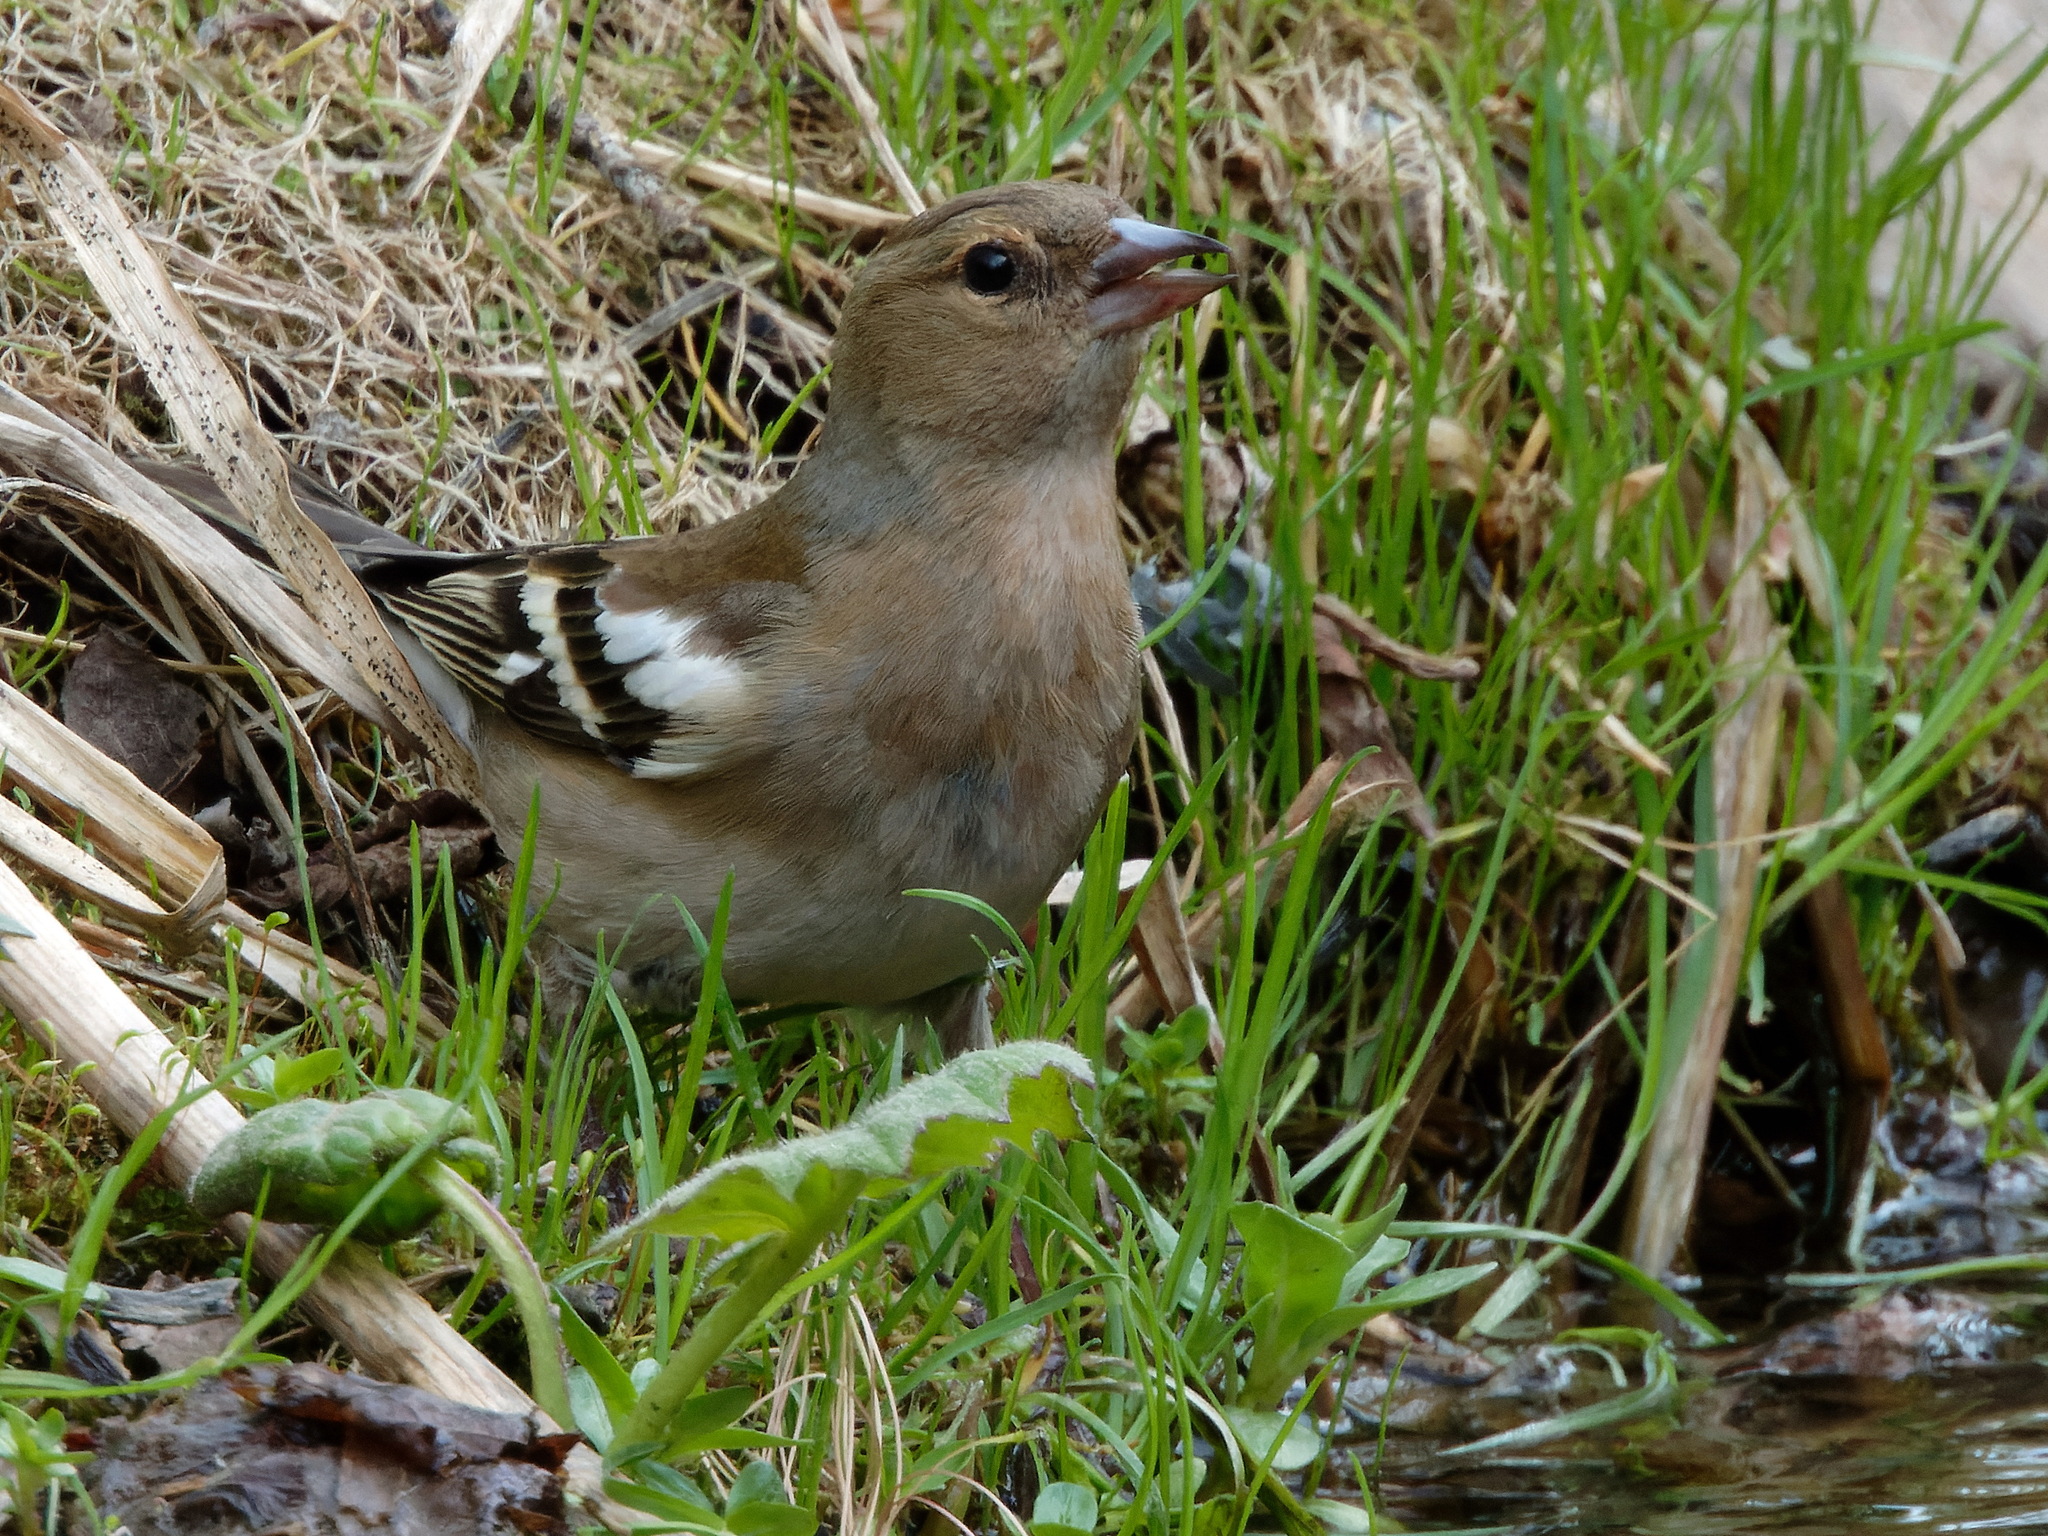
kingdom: Animalia
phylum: Chordata
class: Aves
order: Passeriformes
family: Fringillidae
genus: Fringilla
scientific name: Fringilla coelebs
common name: Common chaffinch
